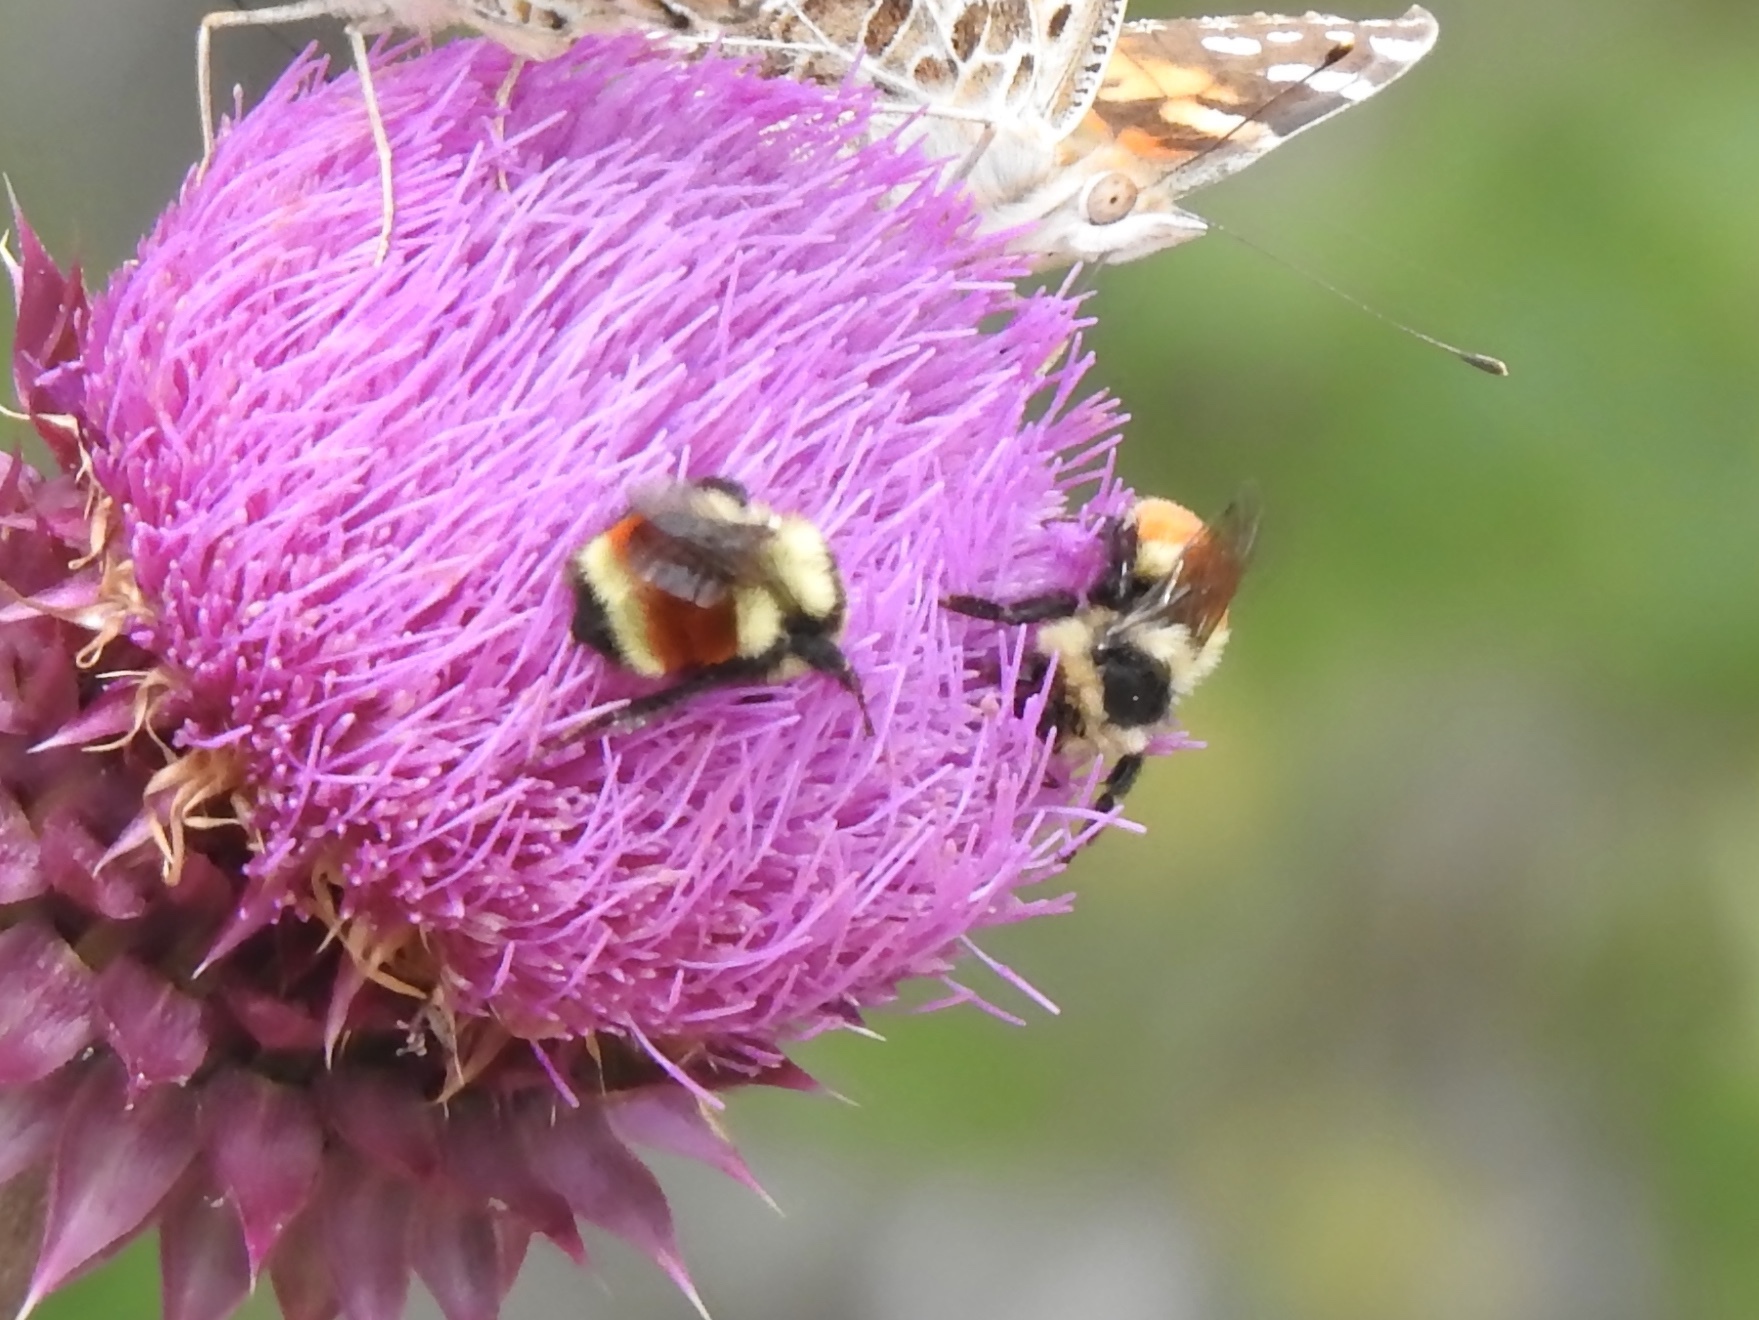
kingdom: Animalia
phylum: Arthropoda
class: Insecta
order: Hymenoptera
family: Apidae
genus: Bombus
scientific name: Bombus huntii
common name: Hunt bumble bee
